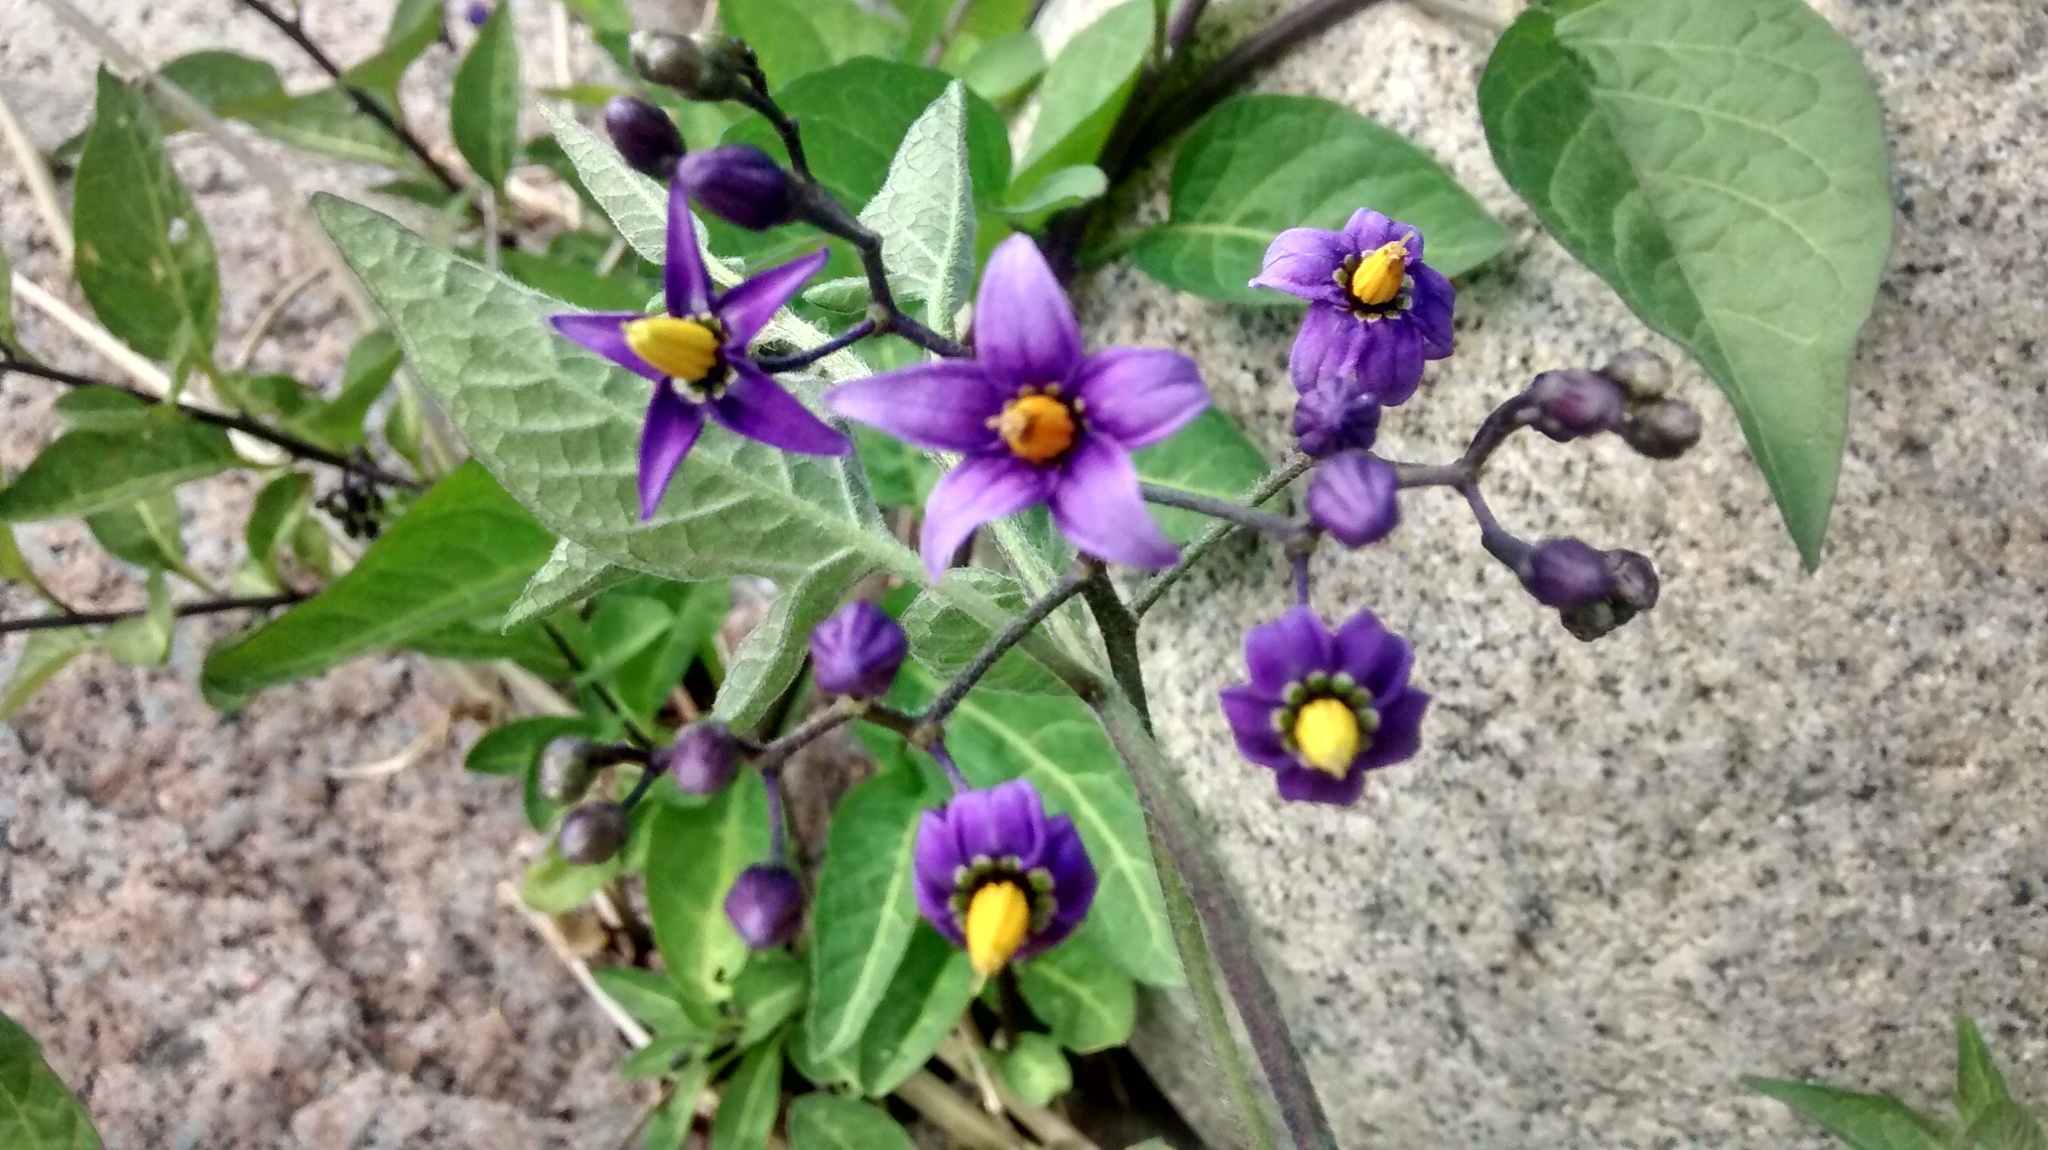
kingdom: Plantae
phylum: Tracheophyta
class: Magnoliopsida
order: Solanales
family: Solanaceae
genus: Solanum
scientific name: Solanum dulcamara
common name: Climbing nightshade
